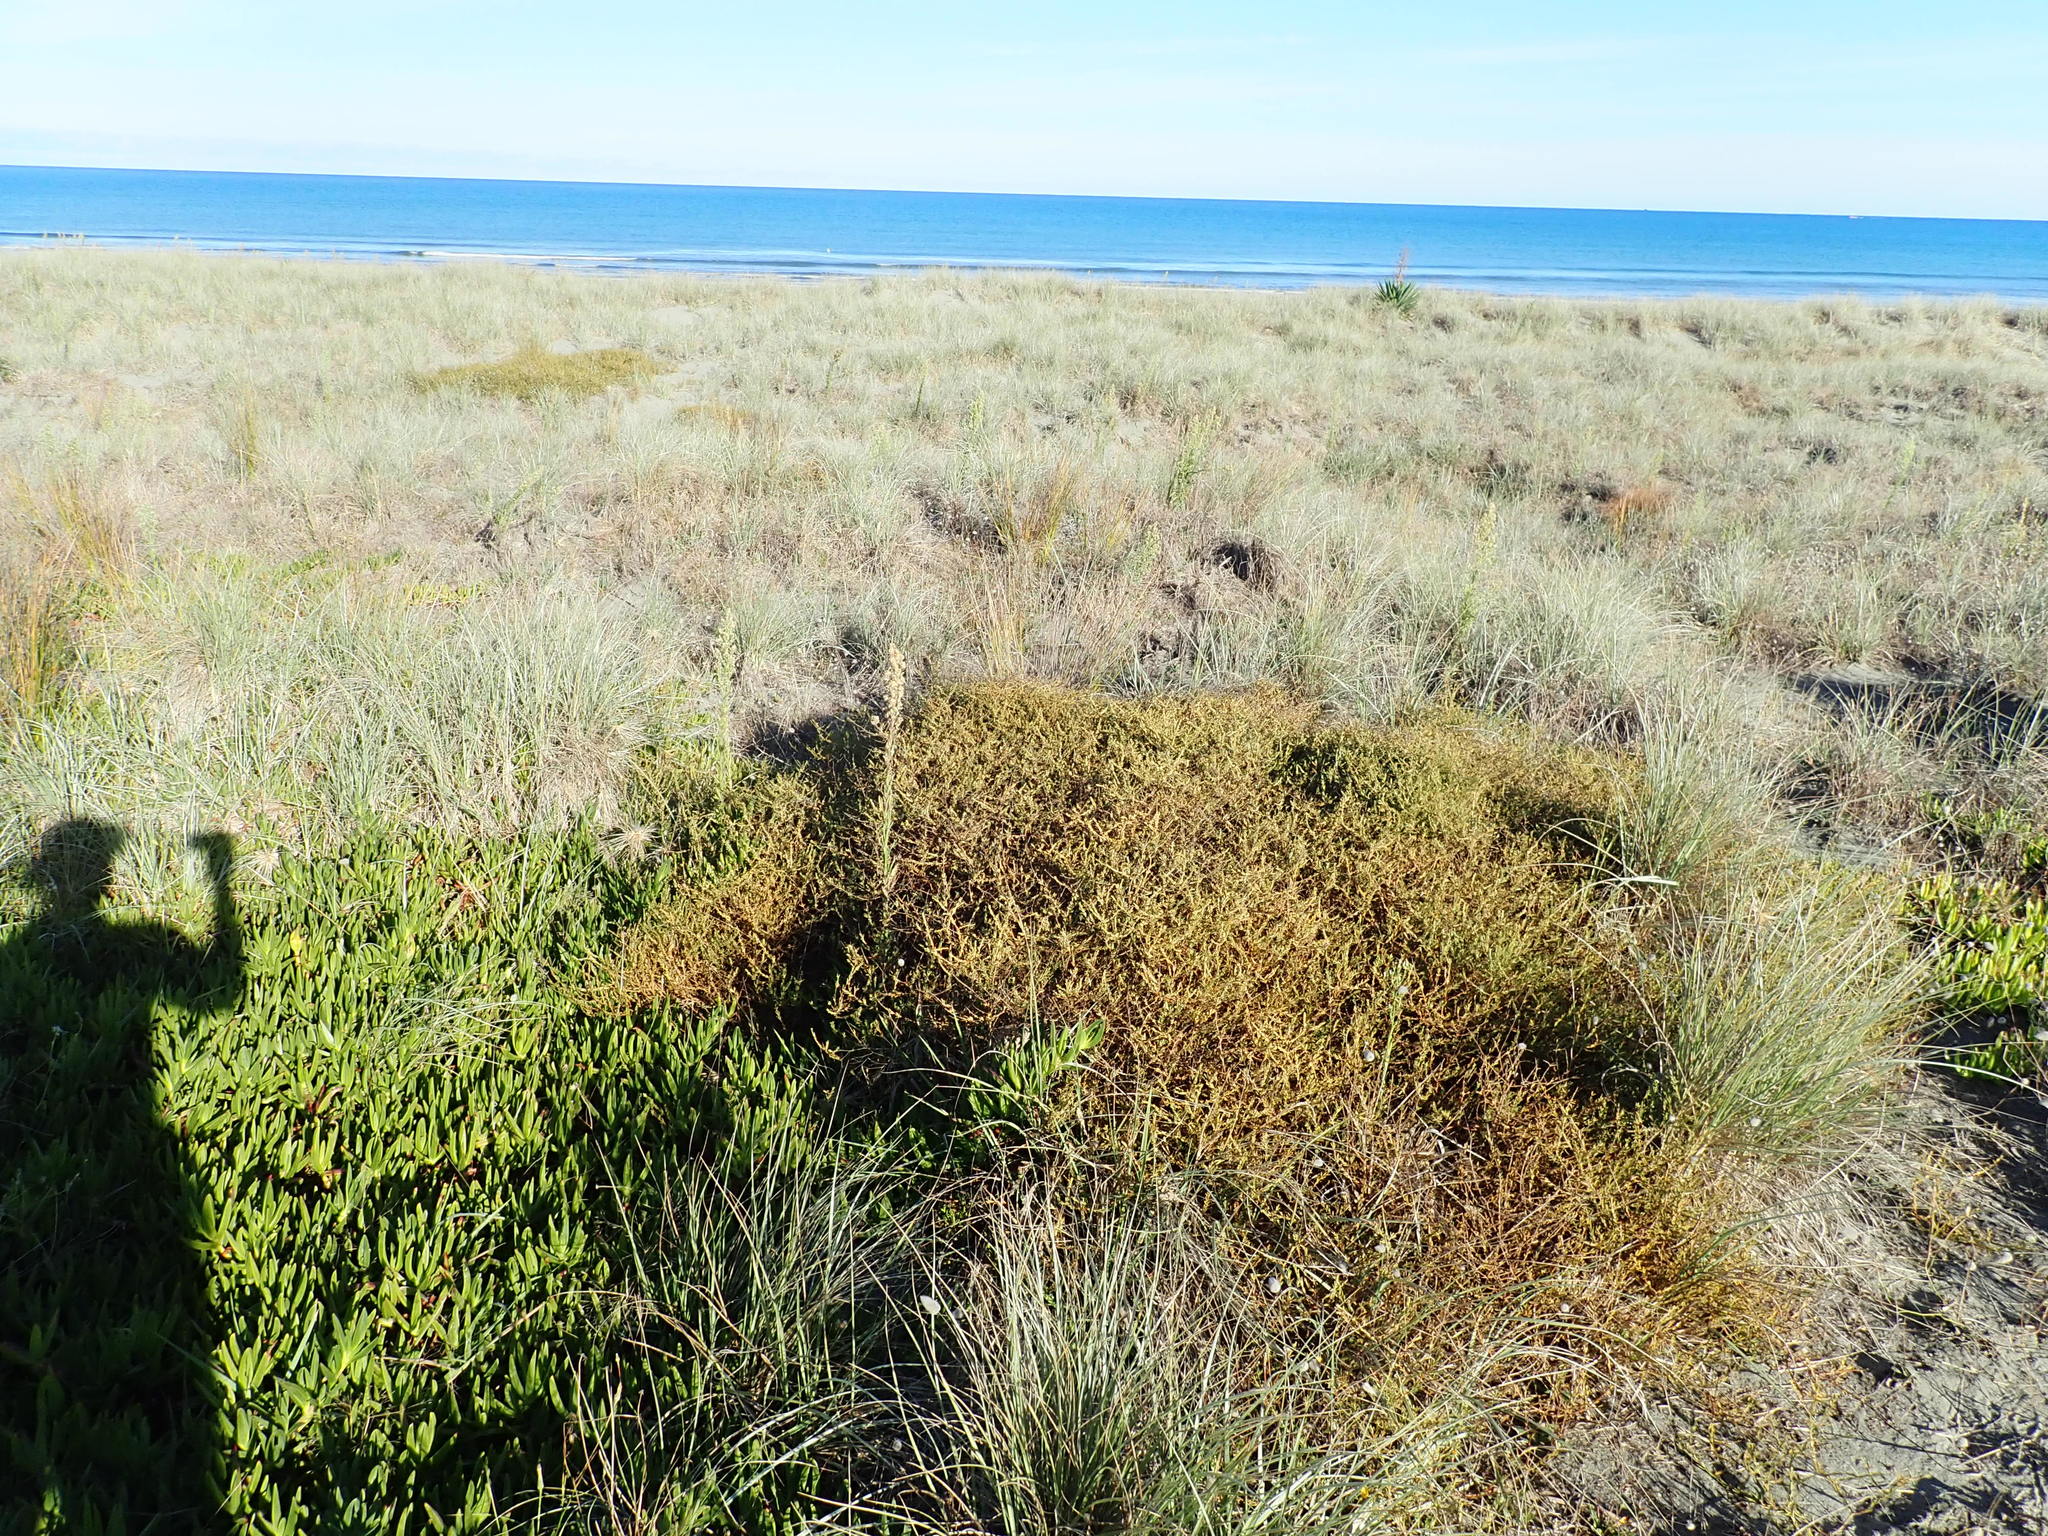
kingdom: Plantae
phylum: Tracheophyta
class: Magnoliopsida
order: Gentianales
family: Rubiaceae
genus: Coprosma
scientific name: Coprosma acerosa
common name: Sand coprosma
